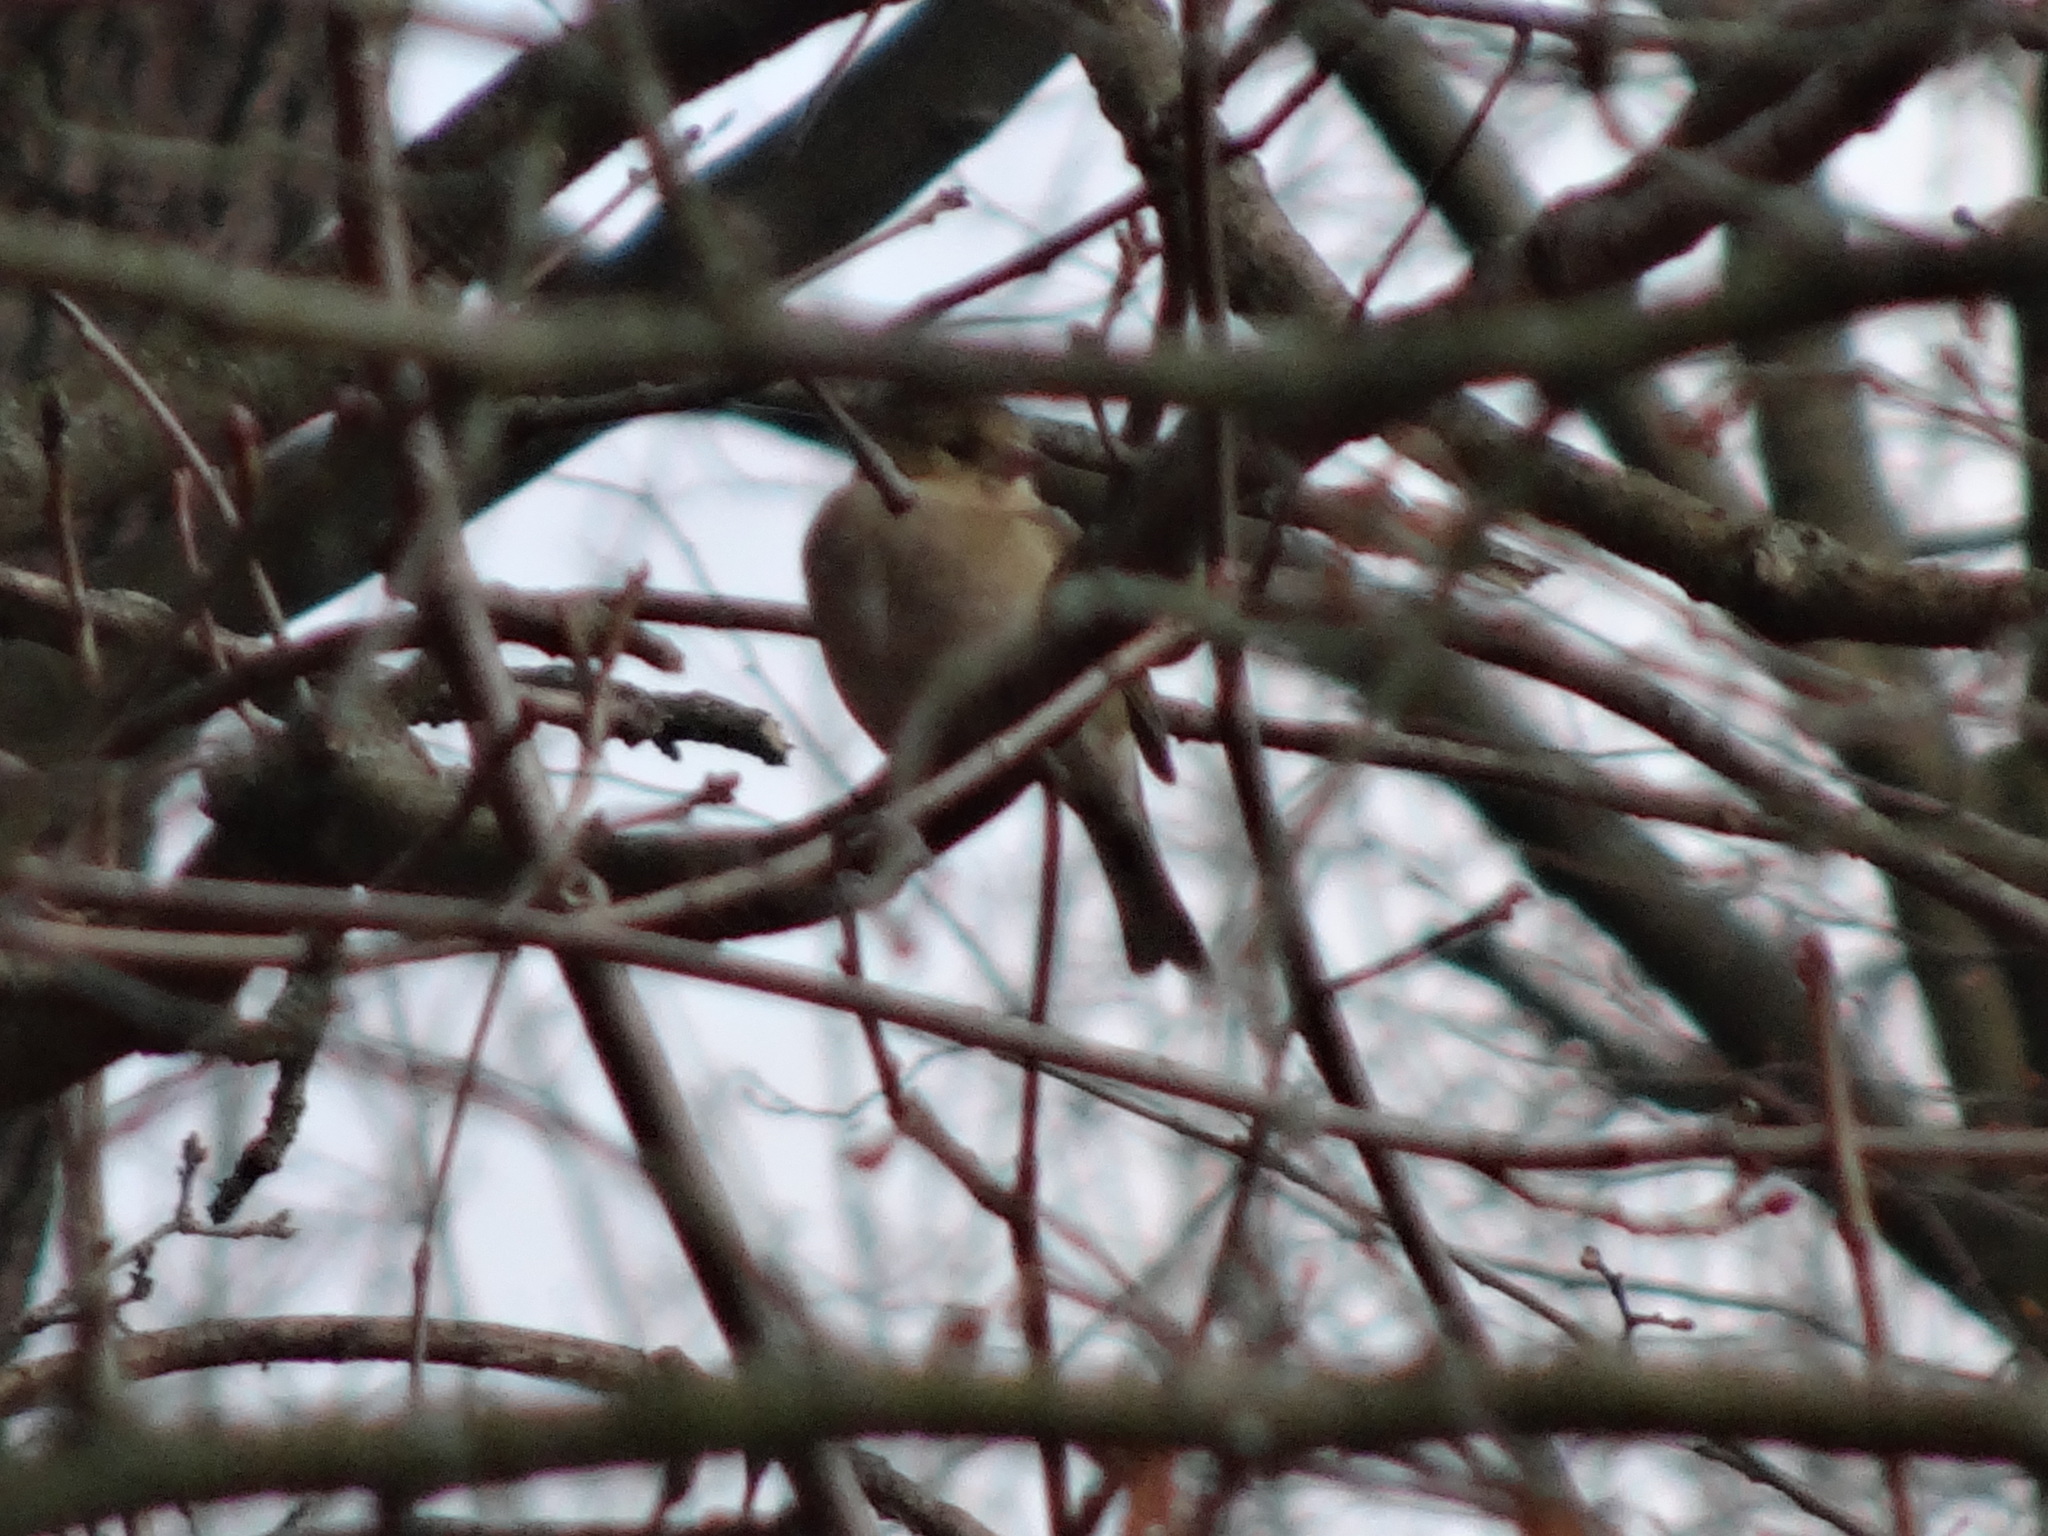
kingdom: Animalia
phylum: Chordata
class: Aves
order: Passeriformes
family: Fringillidae
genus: Fringilla
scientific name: Fringilla coelebs
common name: Common chaffinch
